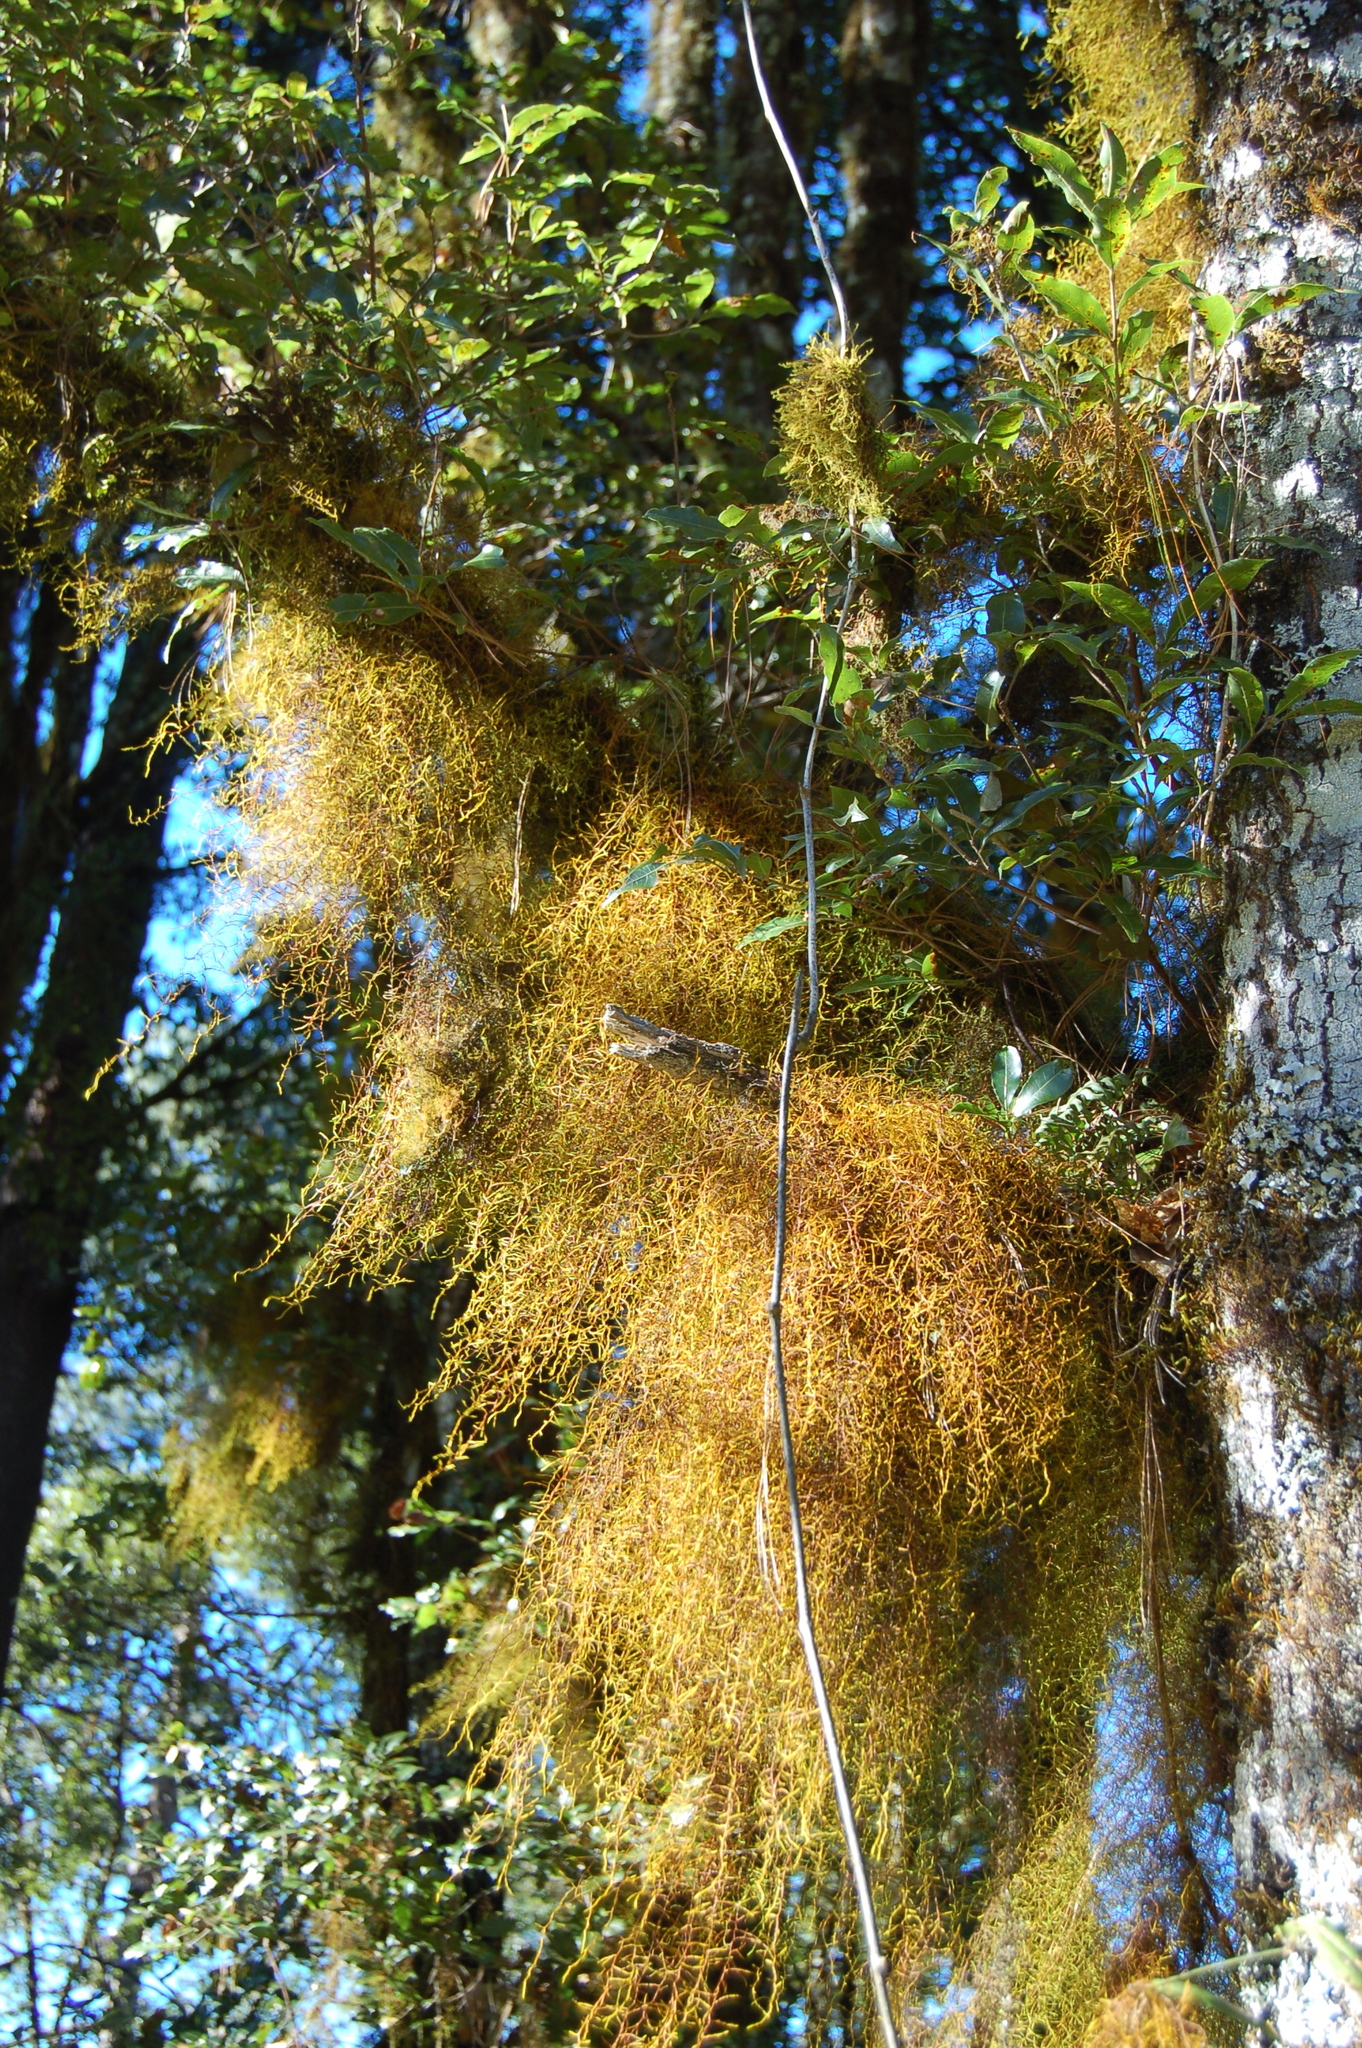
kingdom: Plantae
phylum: Tracheophyta
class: Magnoliopsida
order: Fagales
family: Fagaceae
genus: Quercus
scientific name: Quercus laurina
